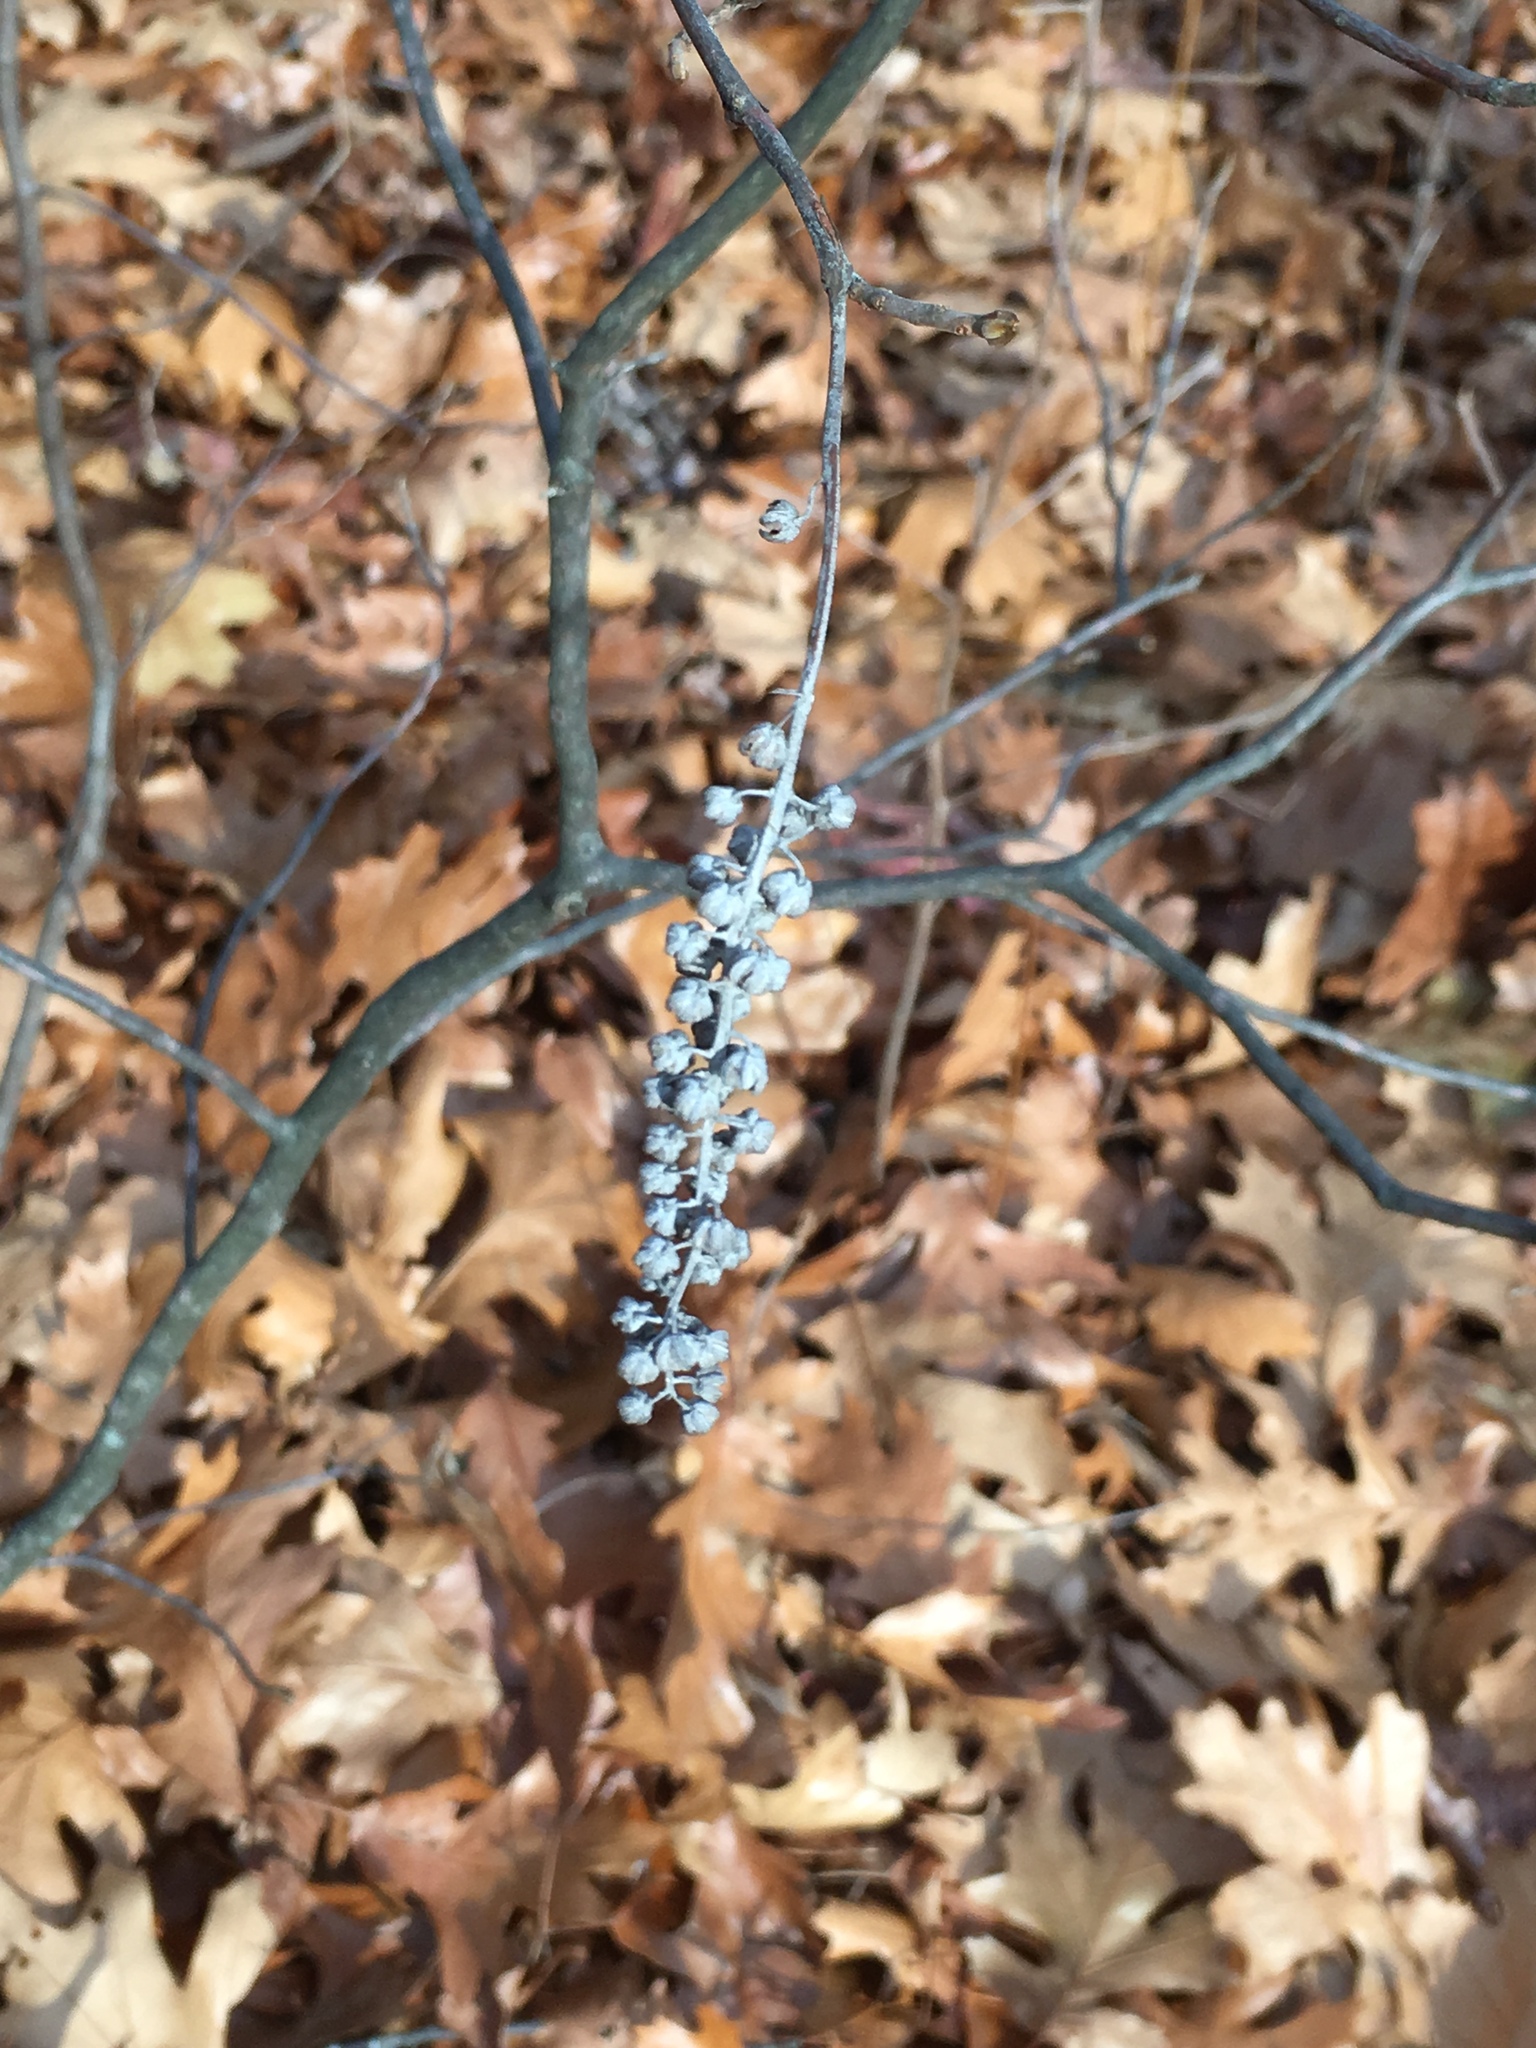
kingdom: Plantae
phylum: Tracheophyta
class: Magnoliopsida
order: Ericales
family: Clethraceae
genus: Clethra
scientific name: Clethra alnifolia
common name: Sweet pepperbush
